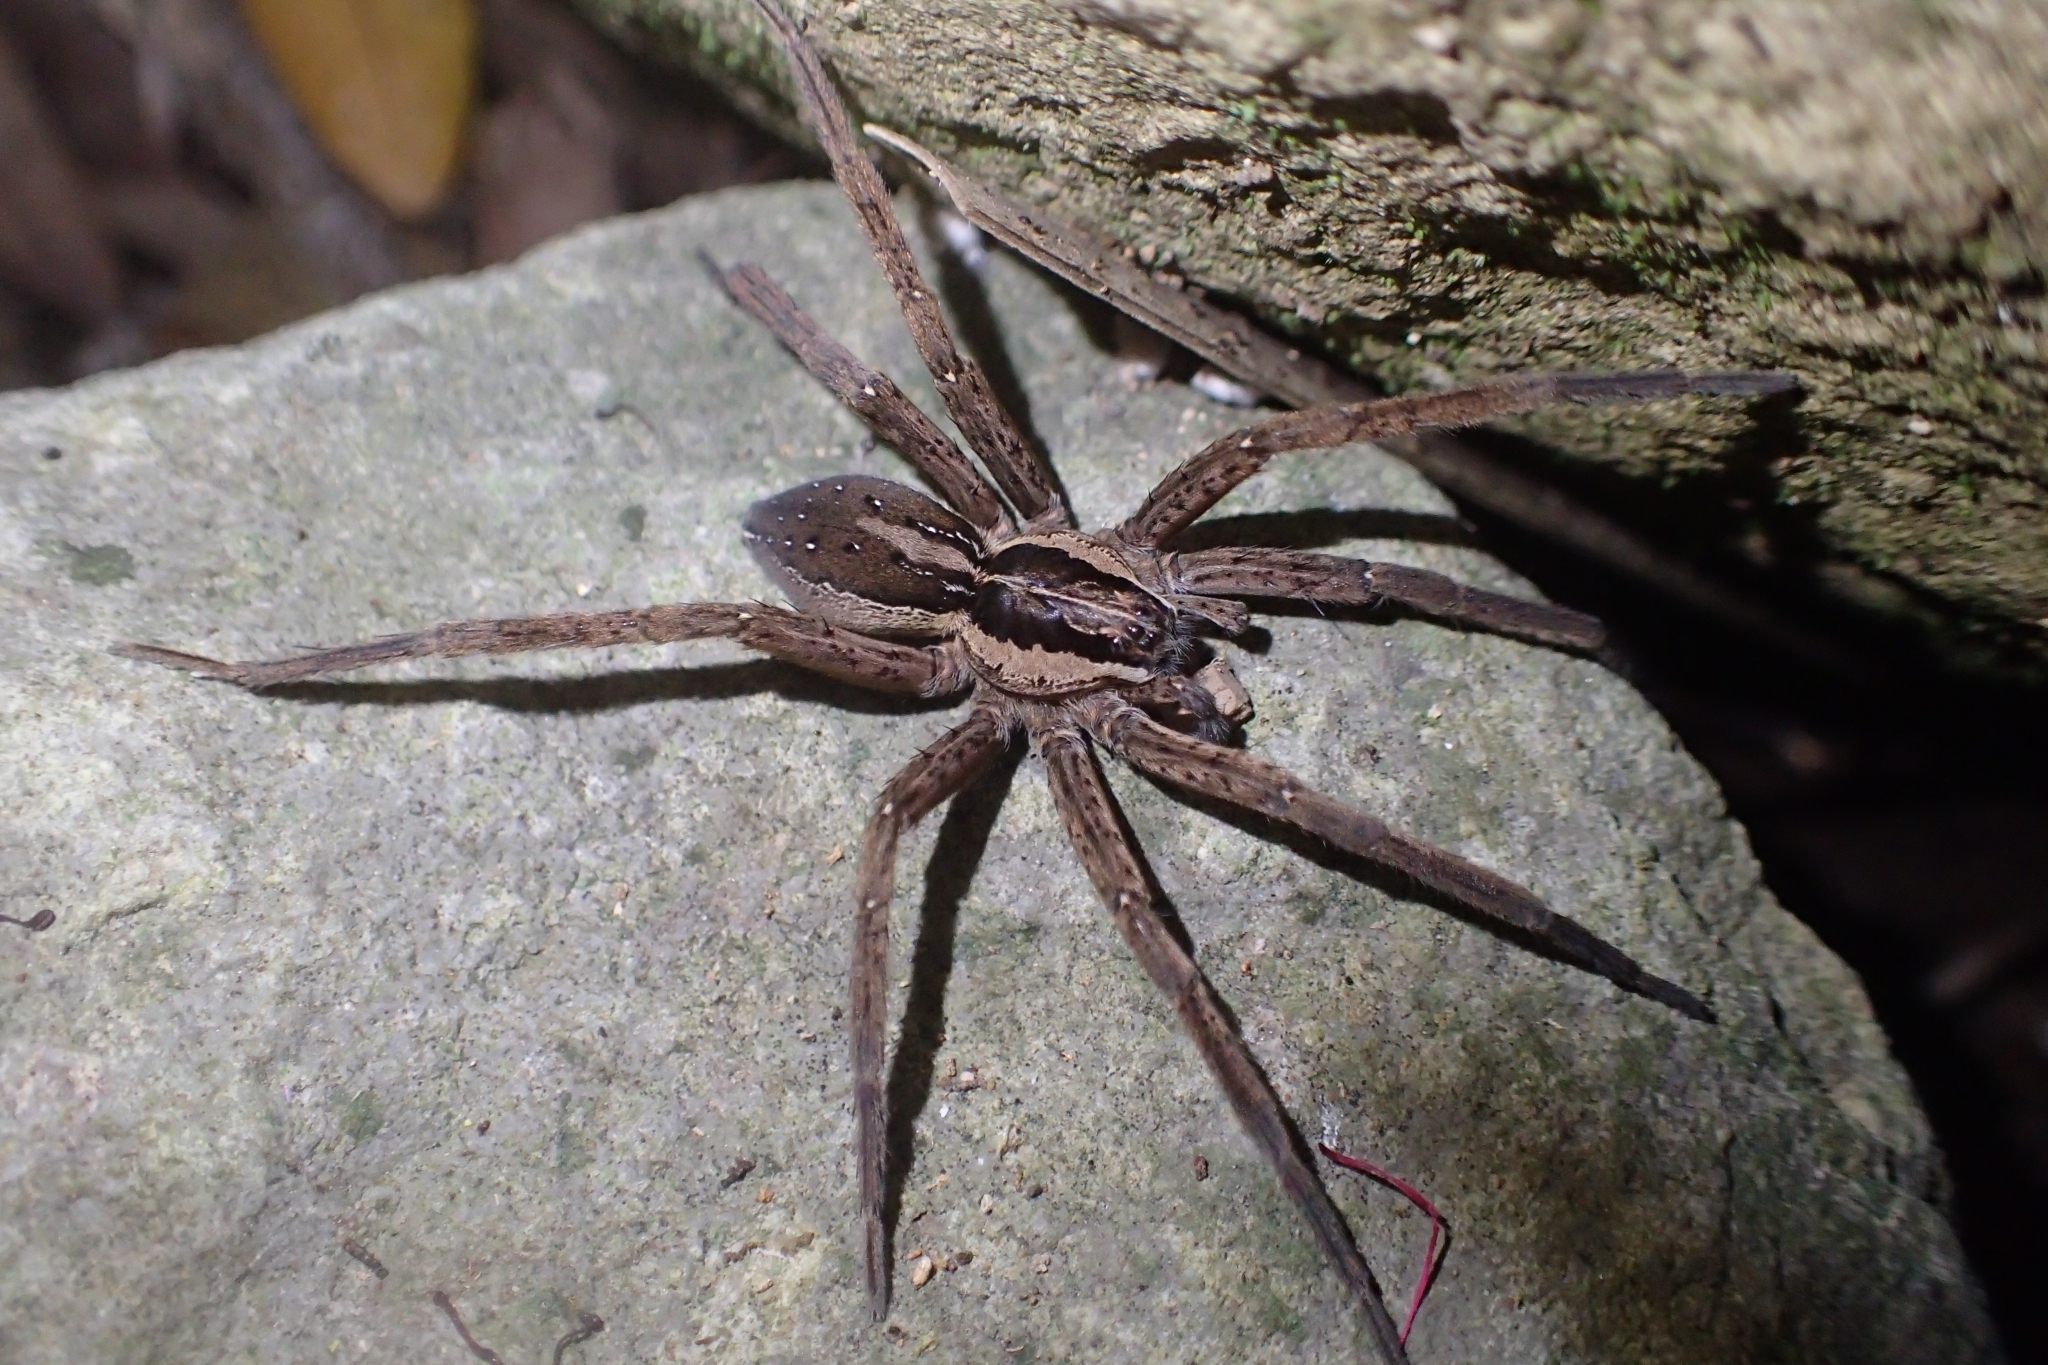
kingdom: Animalia
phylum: Arthropoda
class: Arachnida
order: Araneae
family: Pisauridae
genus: Dolomedes
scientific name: Dolomedes minor
